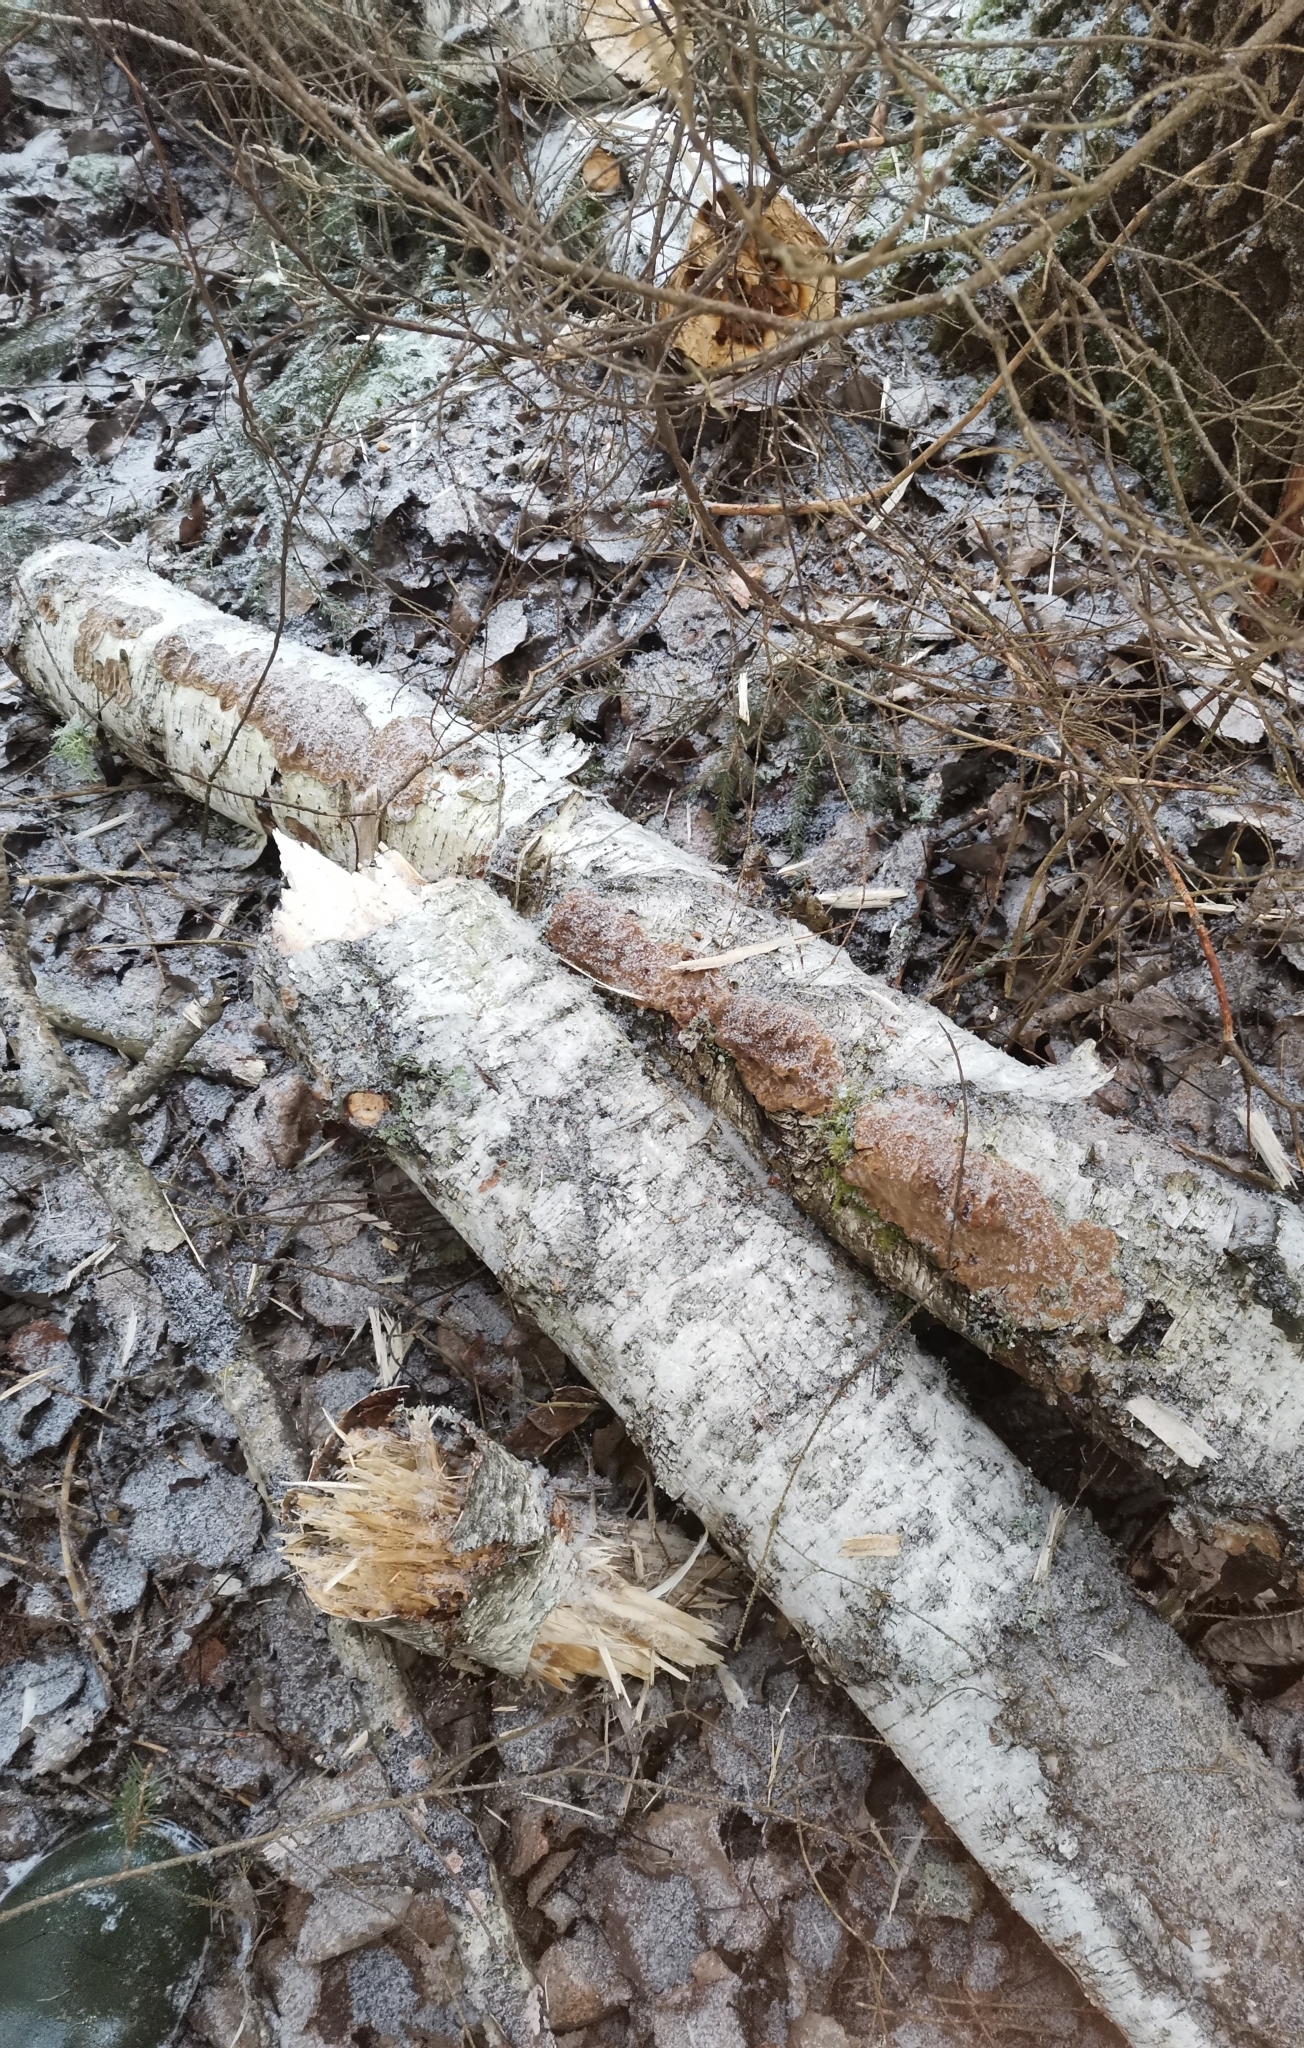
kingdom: Fungi
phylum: Basidiomycota
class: Agaricomycetes
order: Hymenochaetales
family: Hymenochaetaceae
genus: Phellinus
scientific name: Phellinus laevigatus
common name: Smooth bristle bracket
